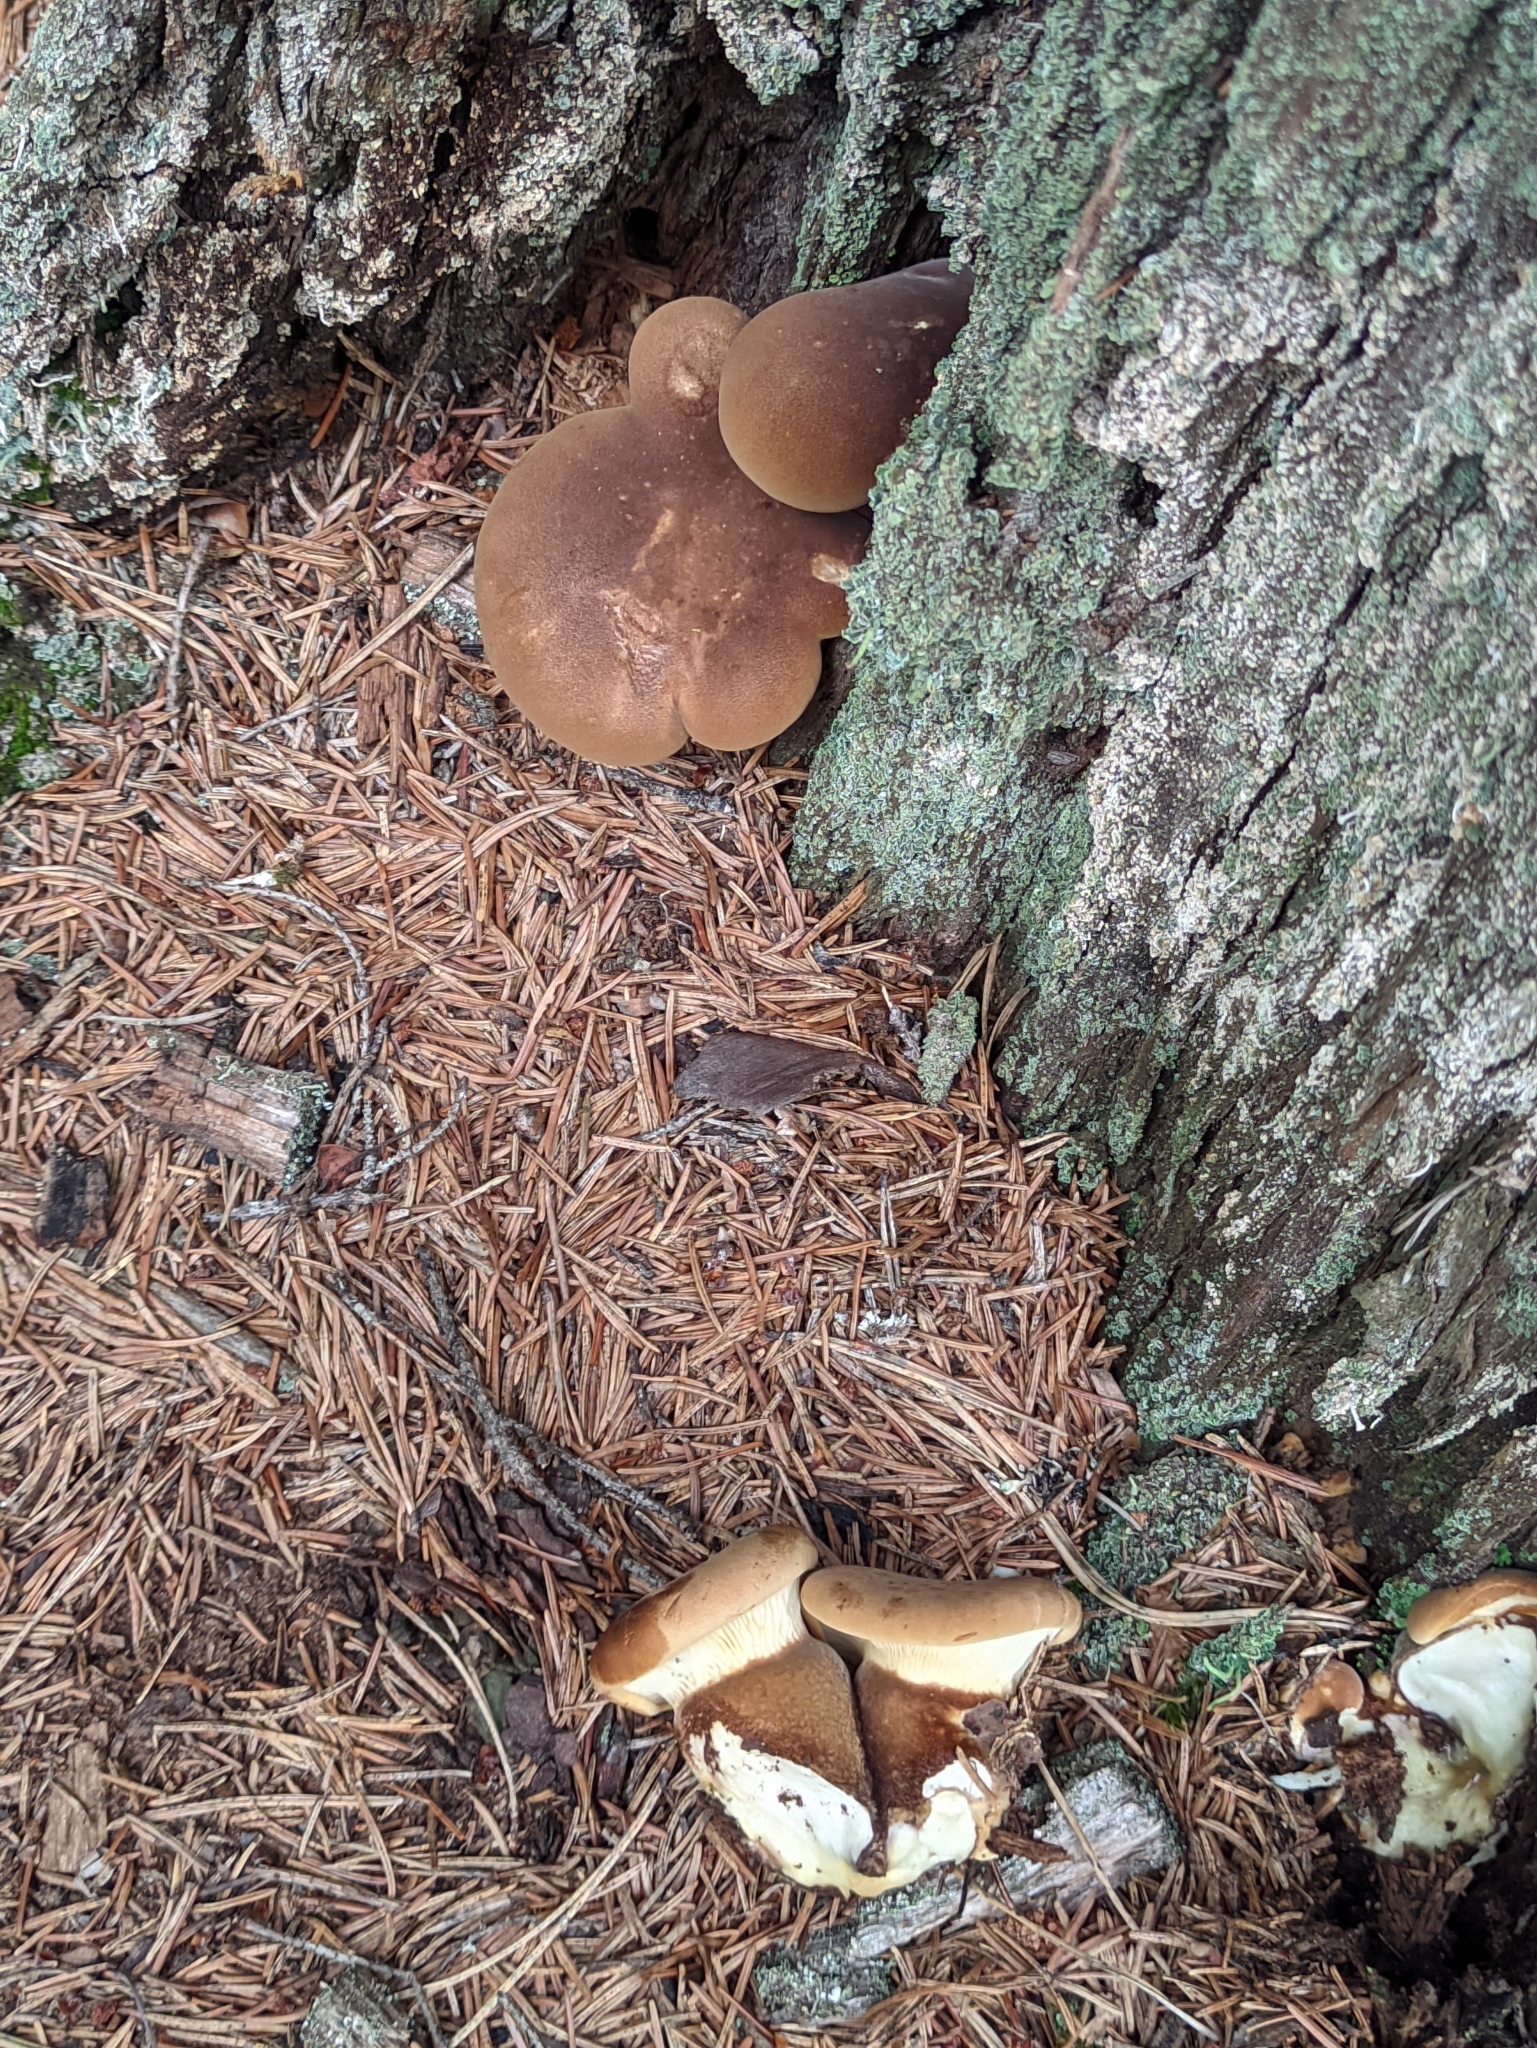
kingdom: Fungi
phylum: Basidiomycota
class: Agaricomycetes
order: Boletales
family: Tapinellaceae
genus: Tapinella
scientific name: Tapinella atrotomentosa
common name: Velvet rollrim
